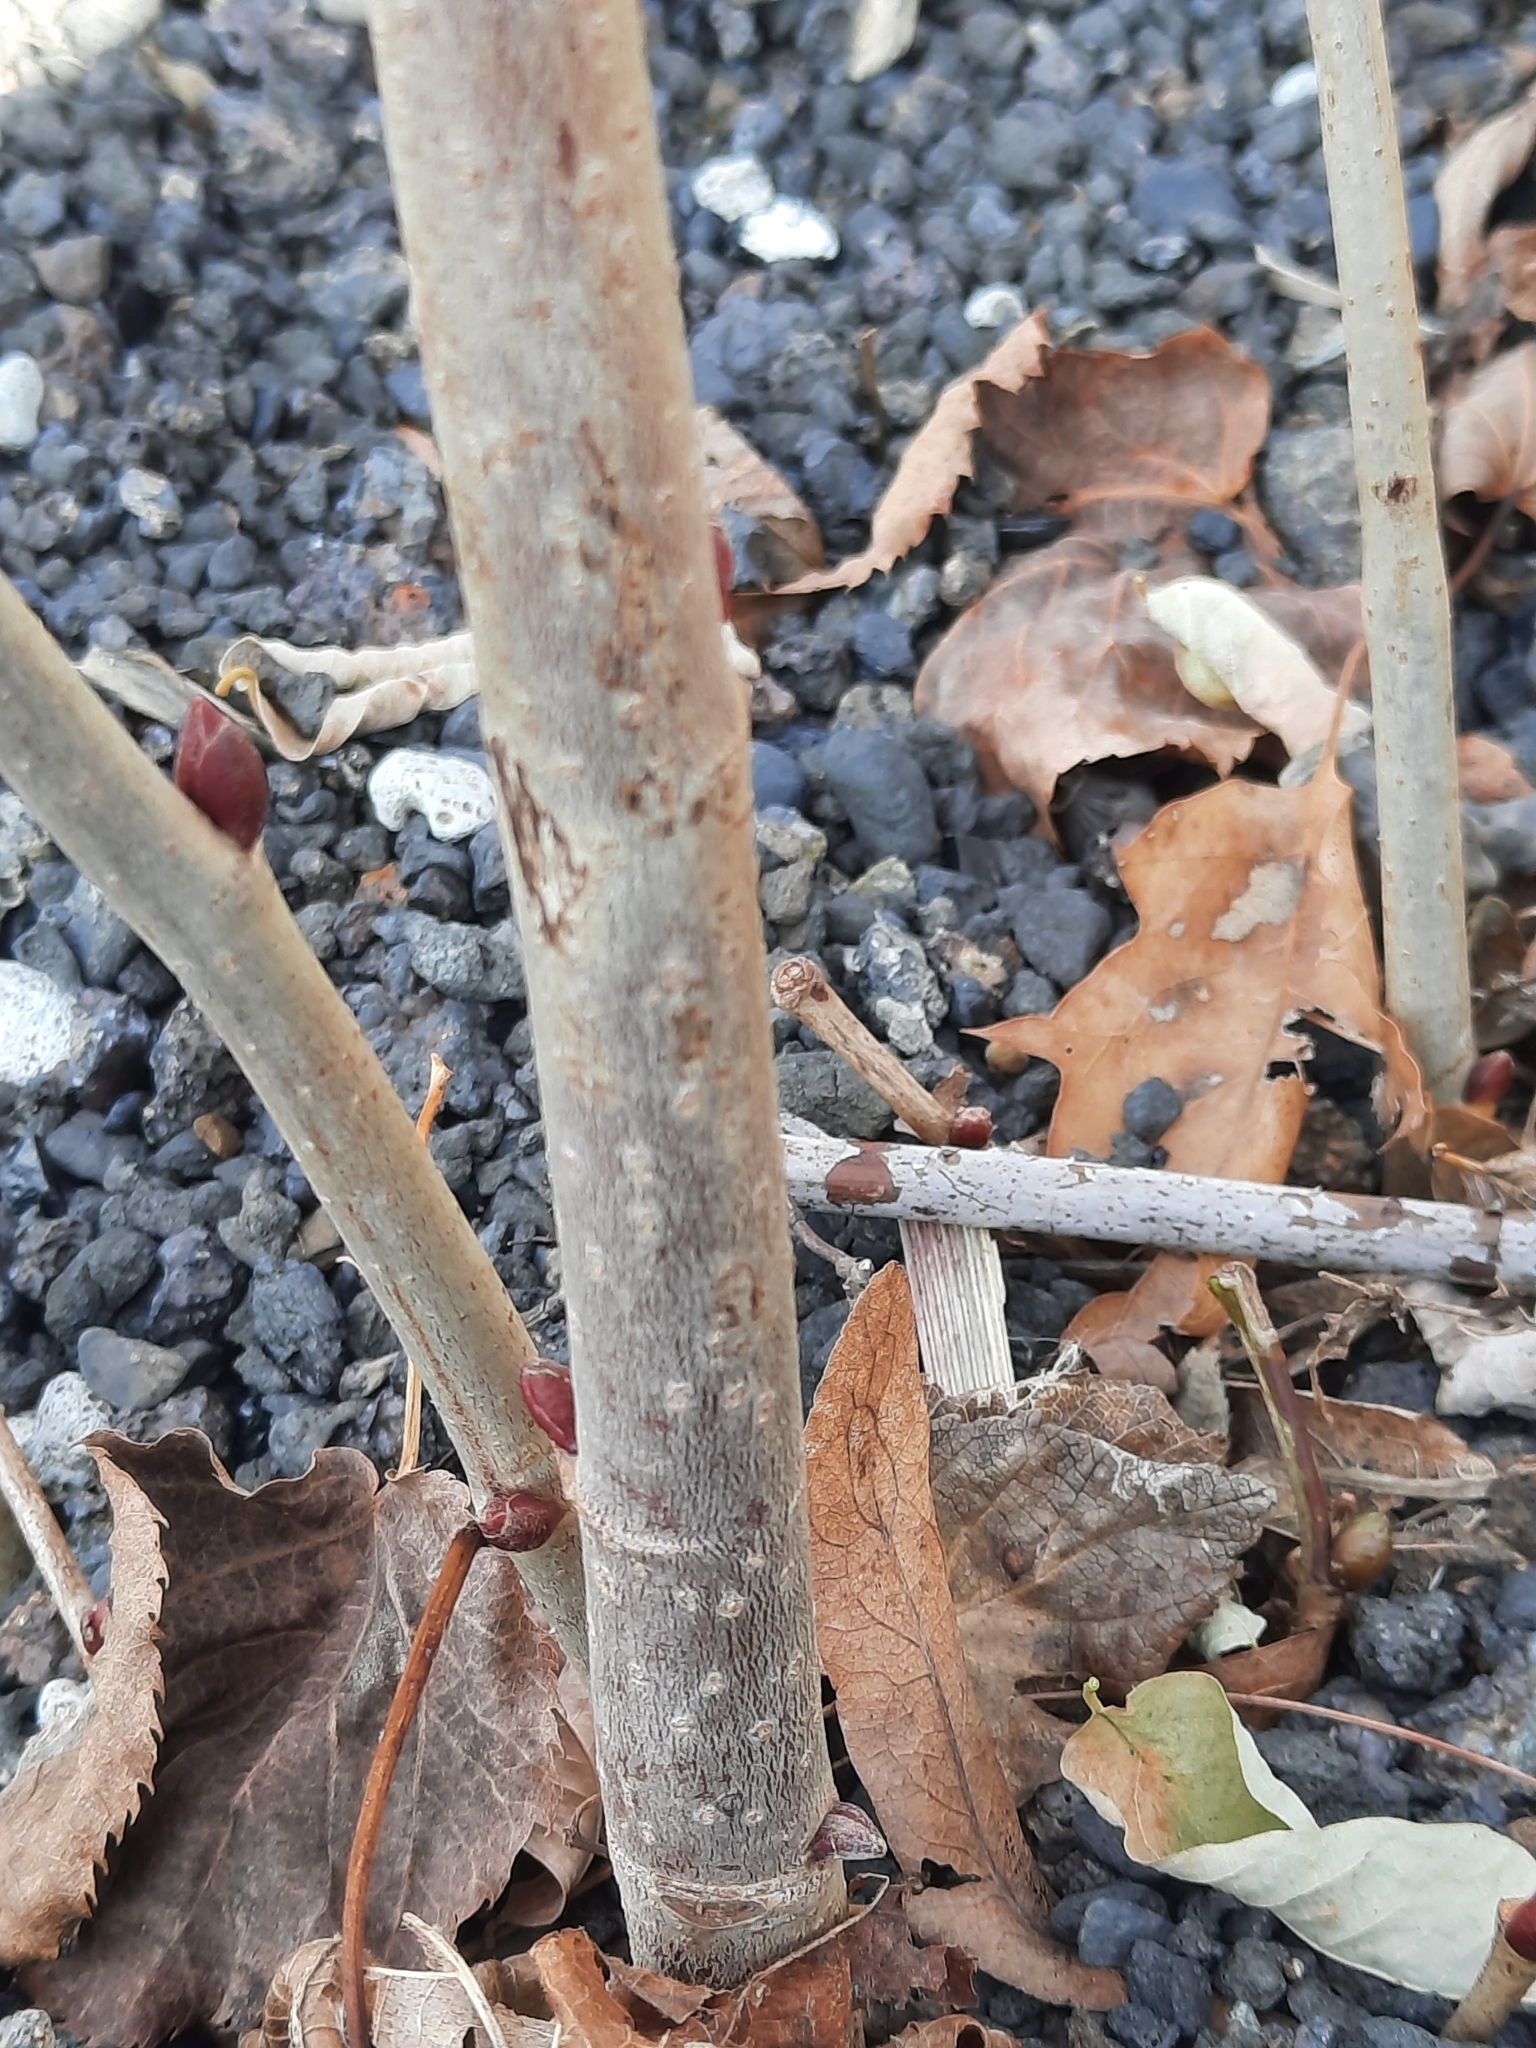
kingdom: Plantae
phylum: Tracheophyta
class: Magnoliopsida
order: Malvales
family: Malvaceae
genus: Tilia
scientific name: Tilia americana
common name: Basswood
